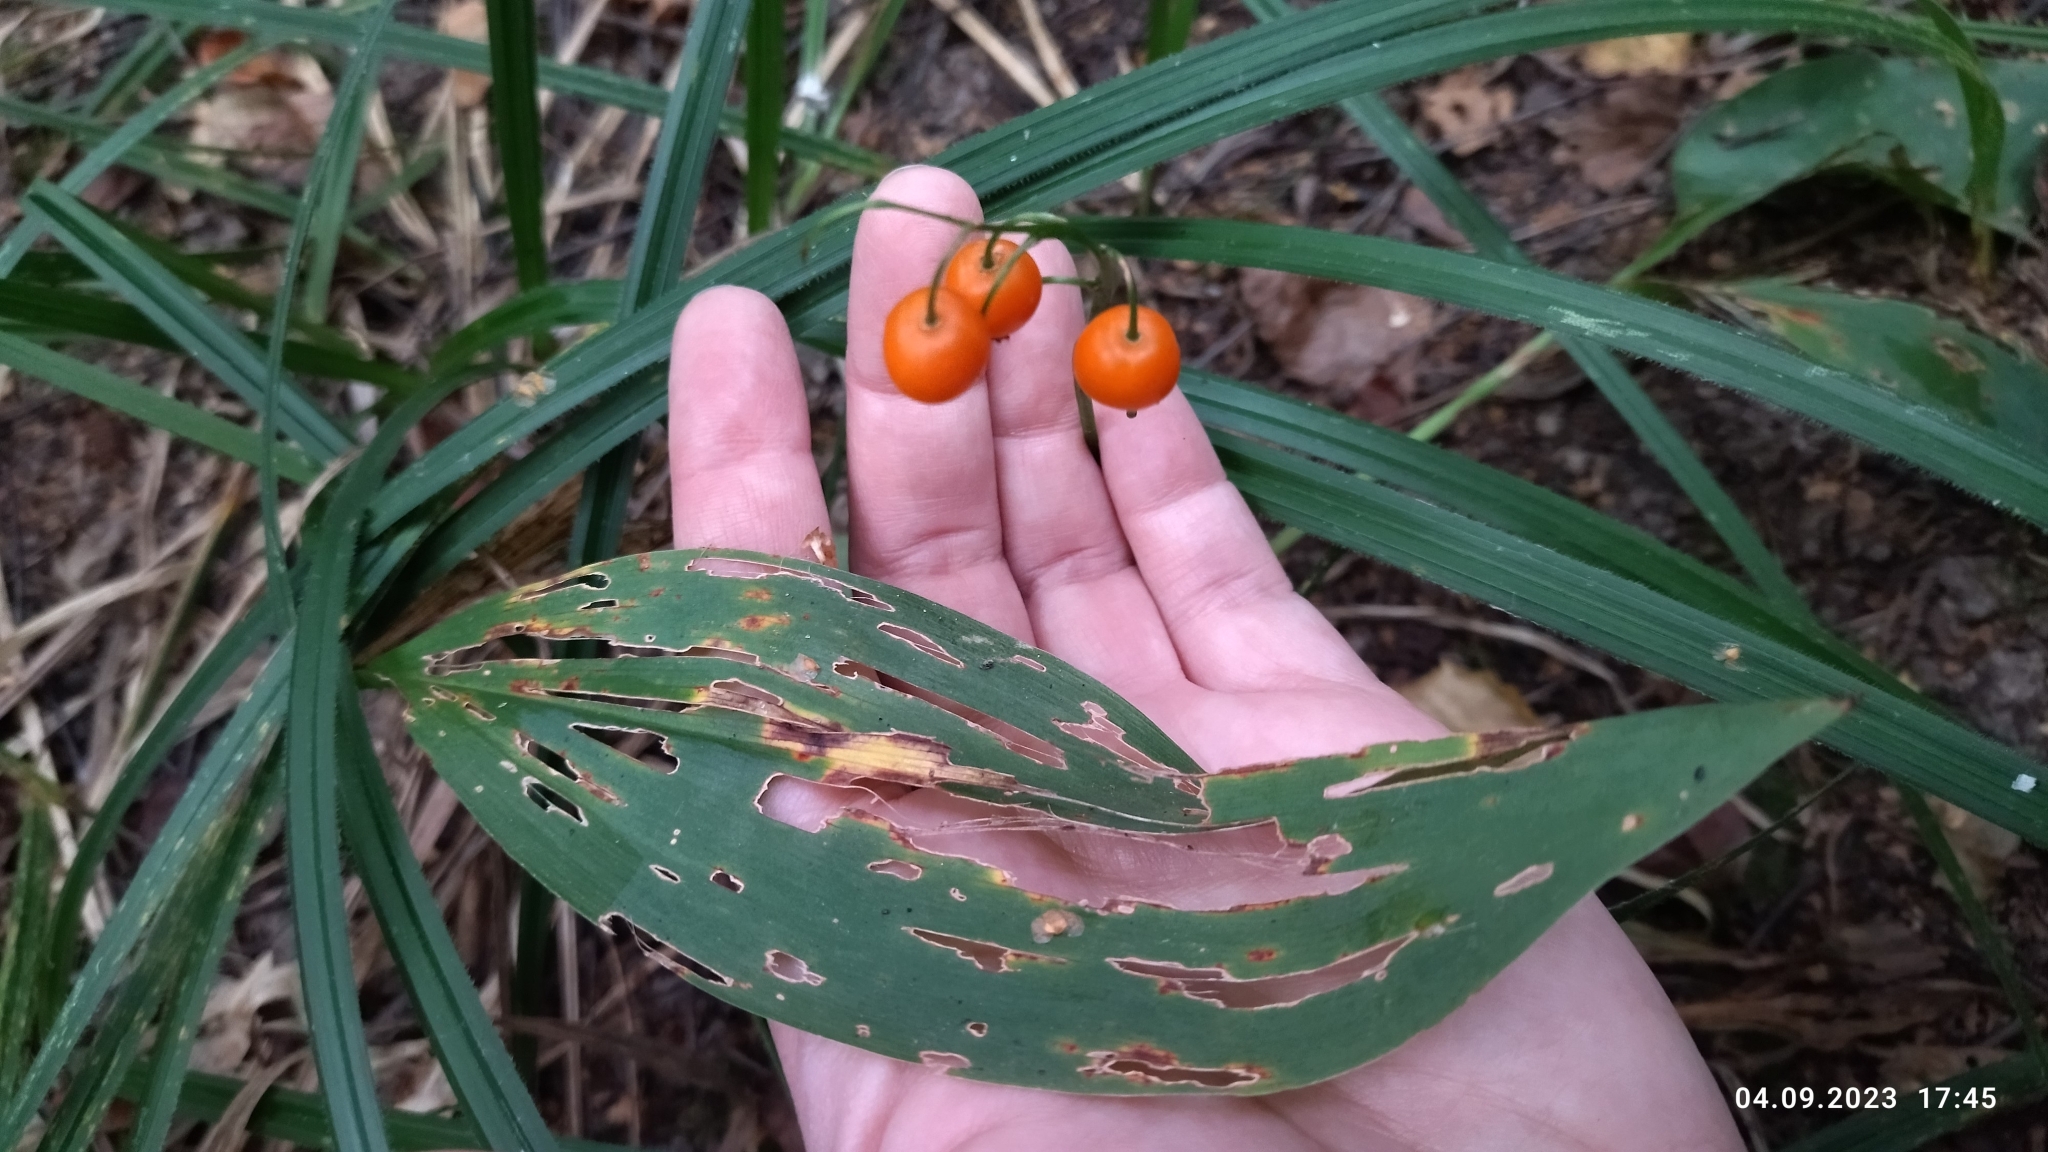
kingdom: Plantae
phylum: Tracheophyta
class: Liliopsida
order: Asparagales
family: Asparagaceae
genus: Convallaria
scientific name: Convallaria majalis
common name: Lily-of-the-valley
